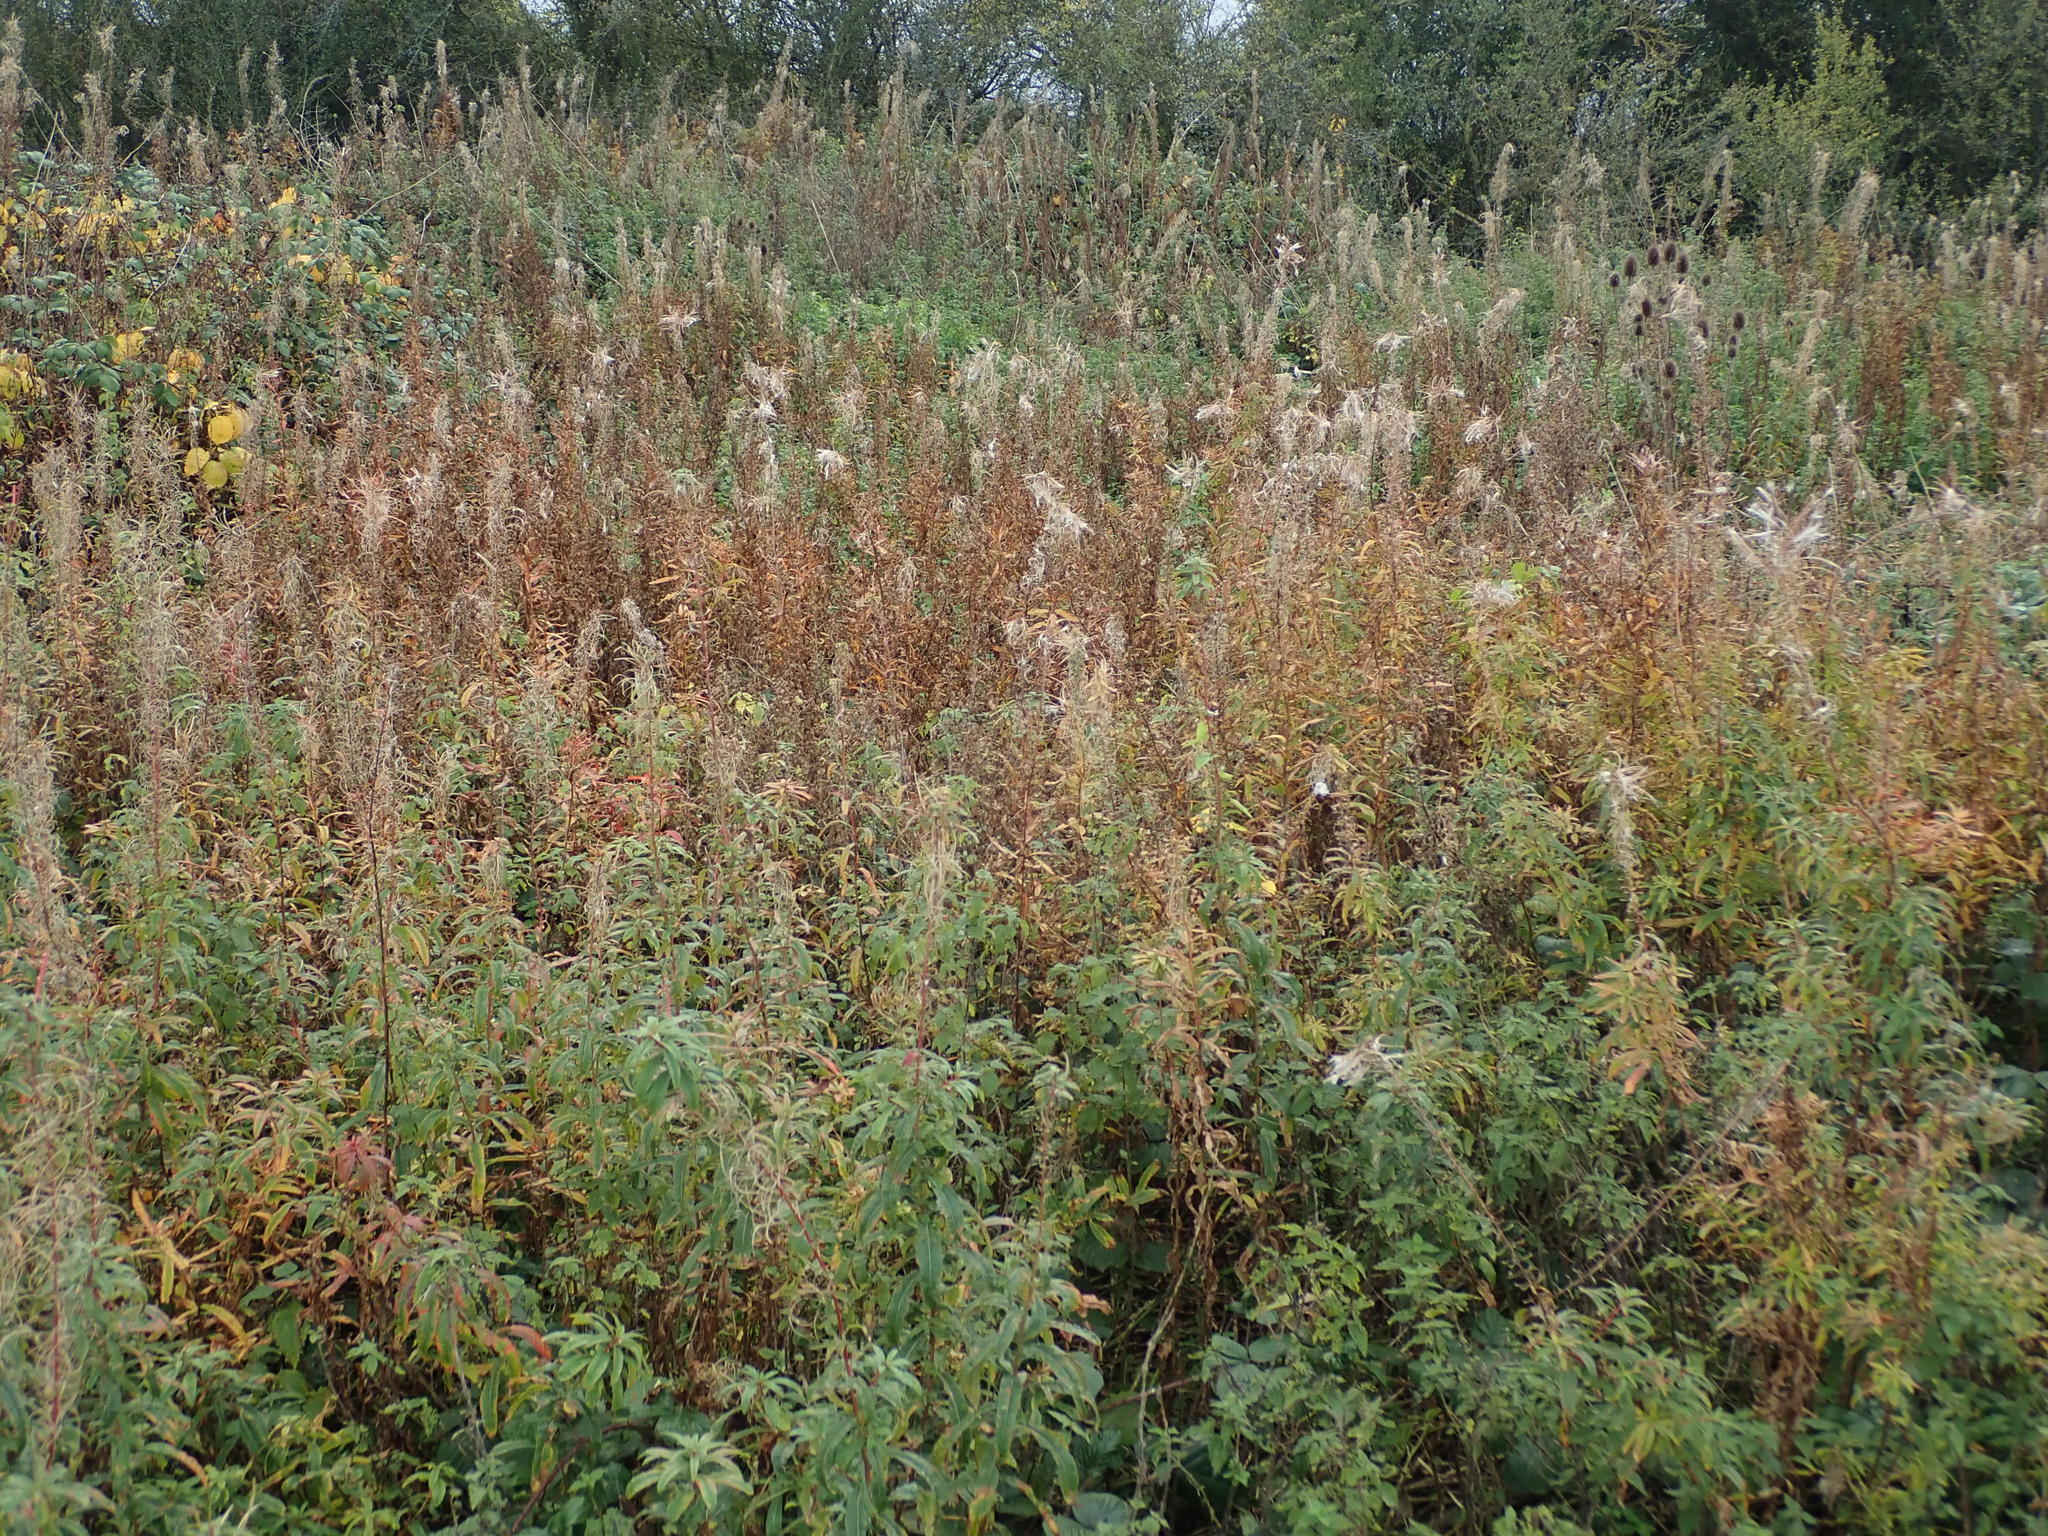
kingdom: Plantae
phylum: Tracheophyta
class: Magnoliopsida
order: Myrtales
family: Onagraceae
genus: Chamaenerion
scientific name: Chamaenerion angustifolium
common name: Fireweed
